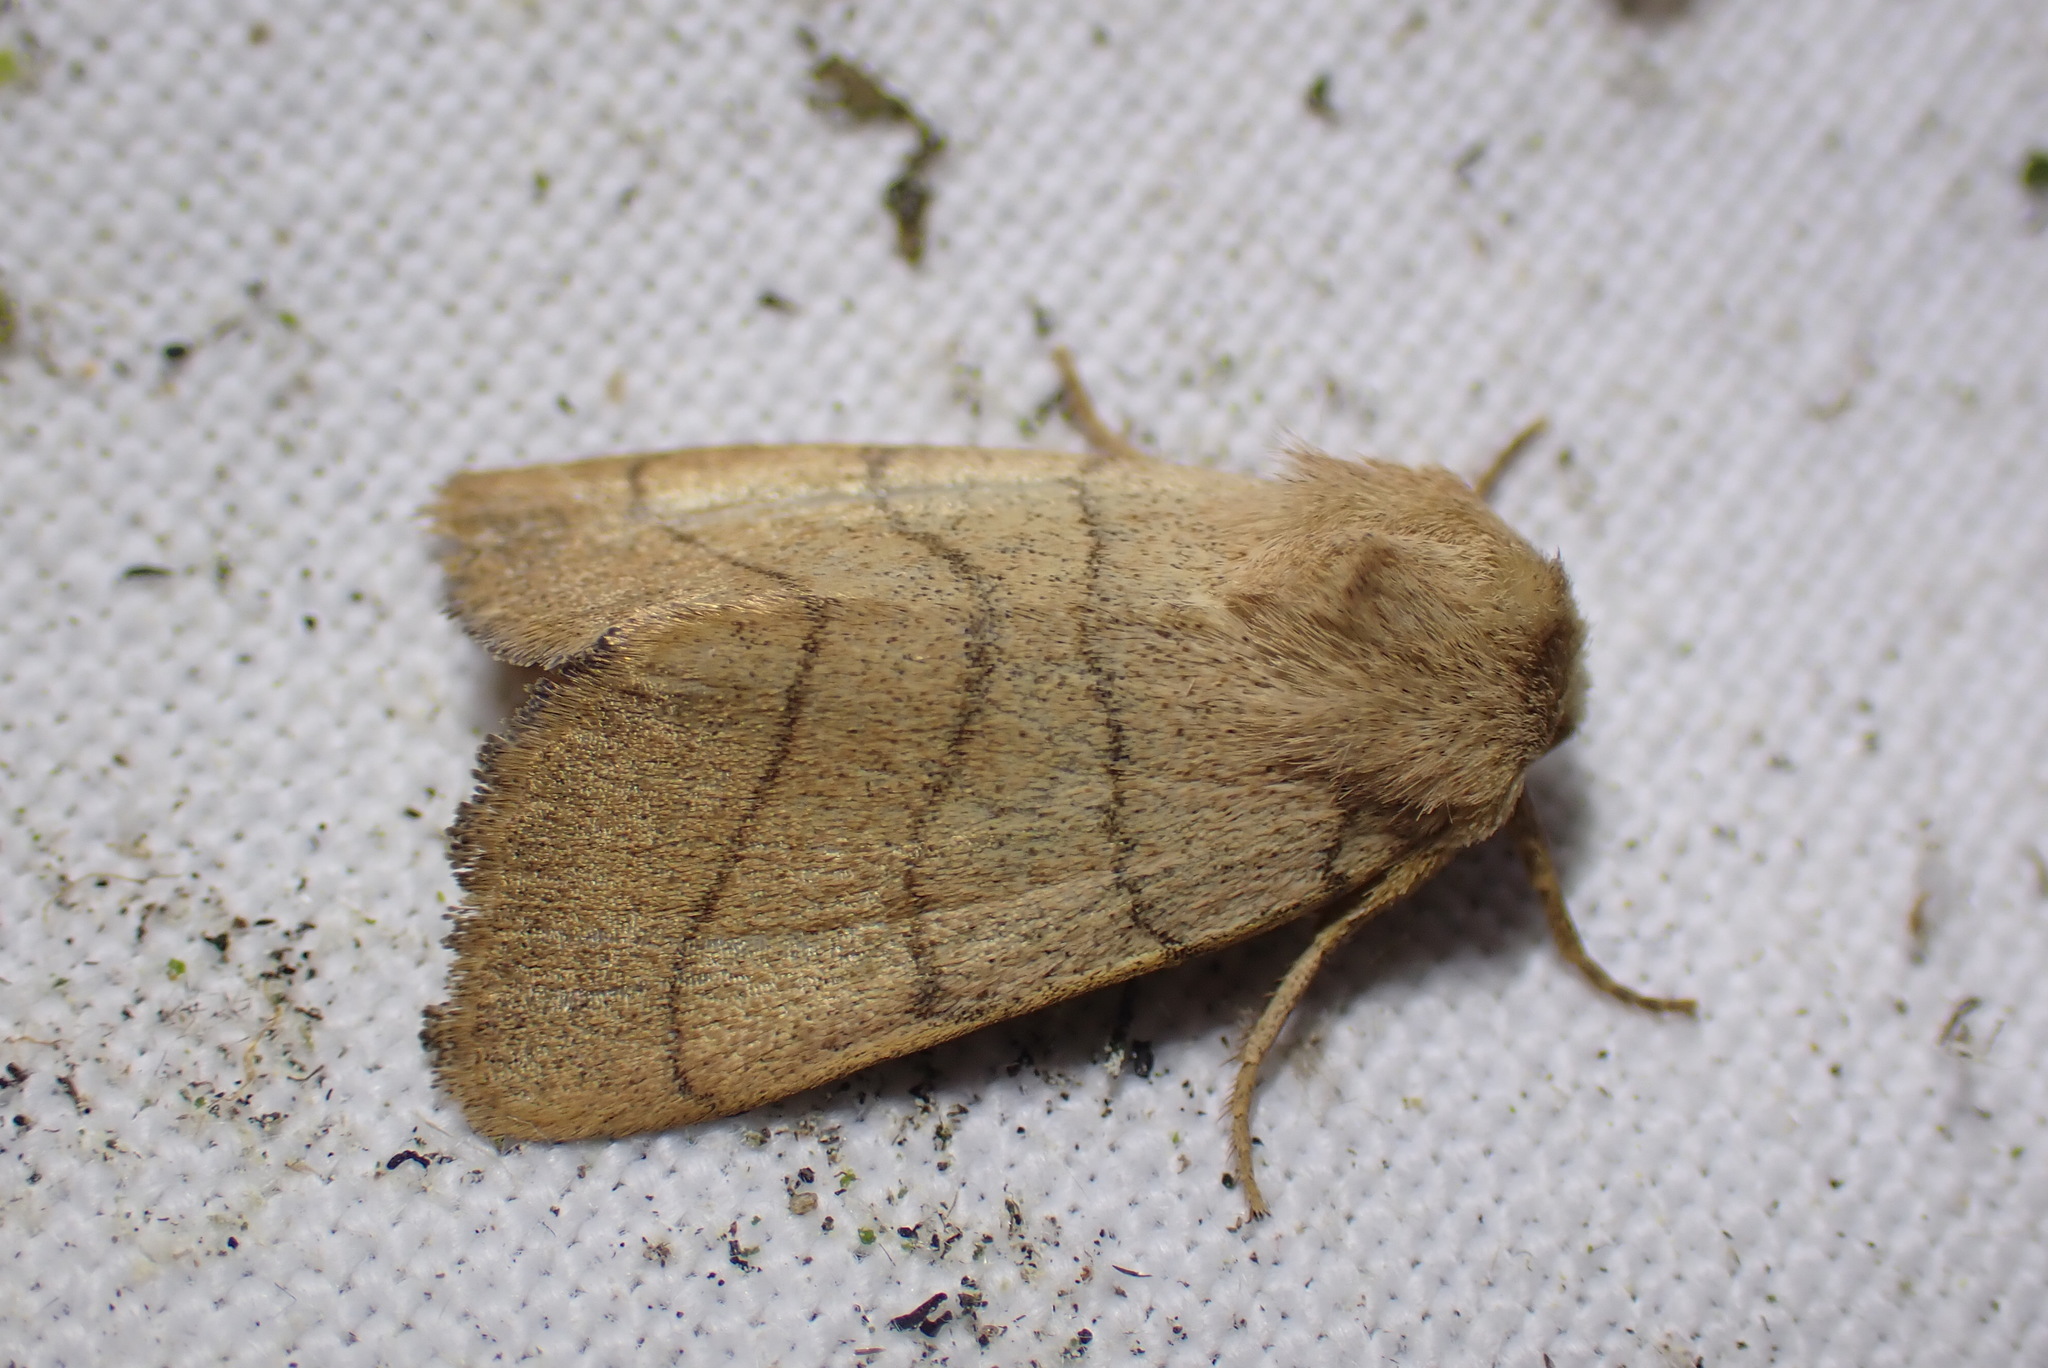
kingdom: Animalia
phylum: Arthropoda
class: Insecta
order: Lepidoptera
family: Noctuidae
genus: Charanyca
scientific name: Charanyca trigrammica
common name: Treble lines
